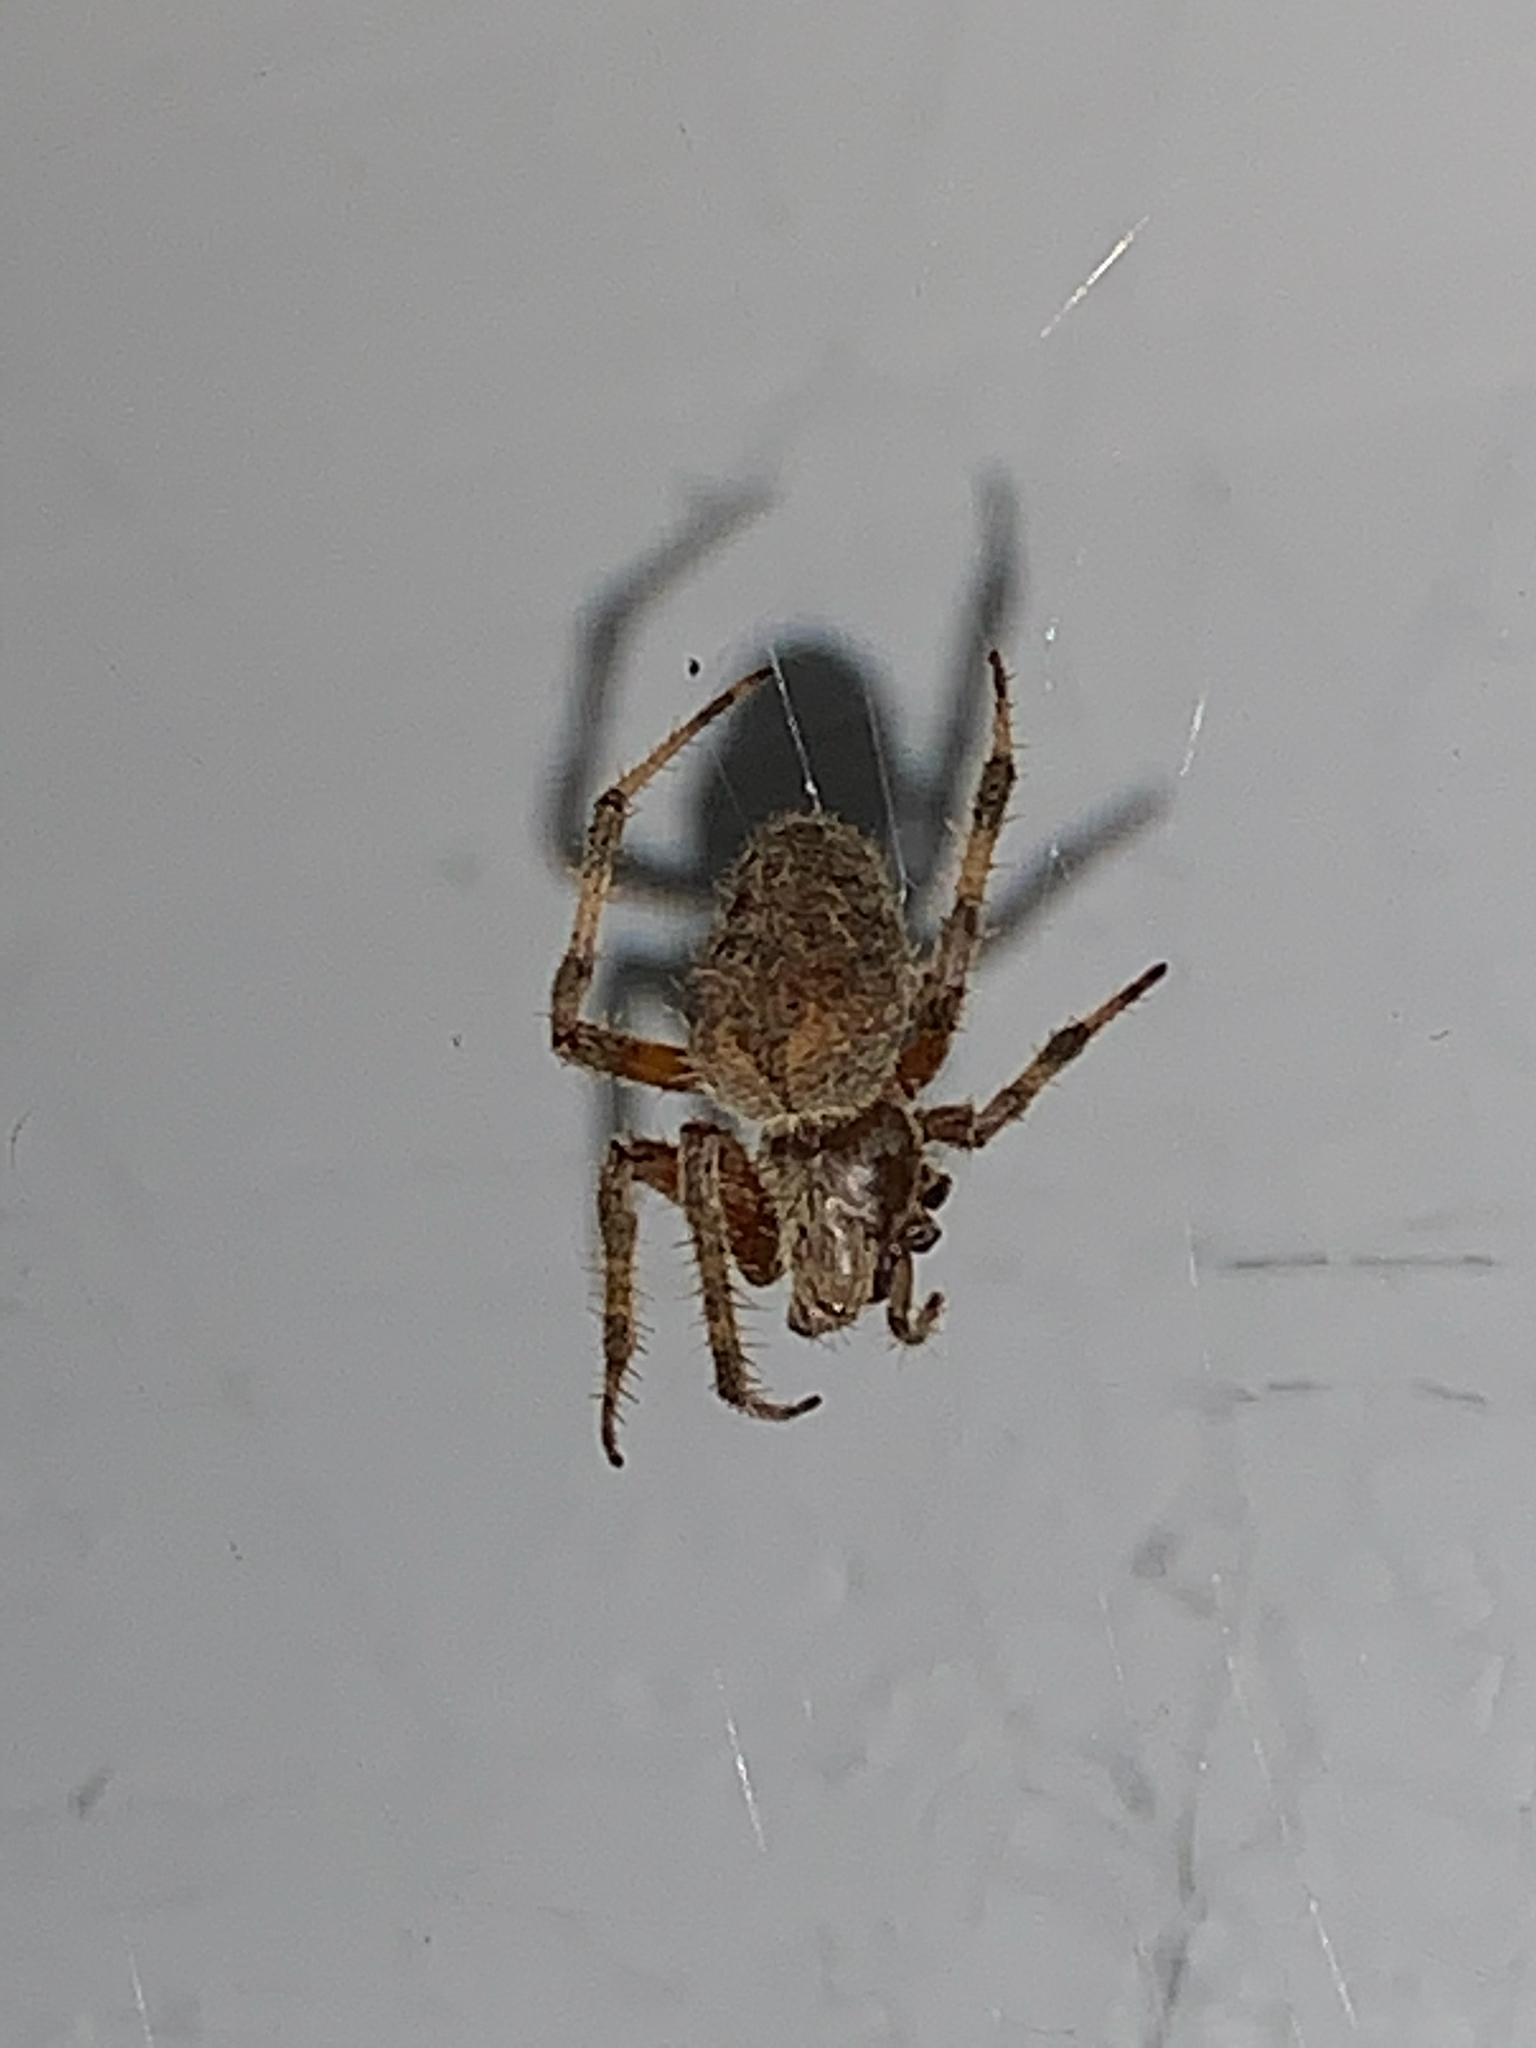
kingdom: Animalia
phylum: Arthropoda
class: Arachnida
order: Araneae
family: Araneidae
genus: Neoscona
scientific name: Neoscona crucifera
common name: Spotted orbweaver
